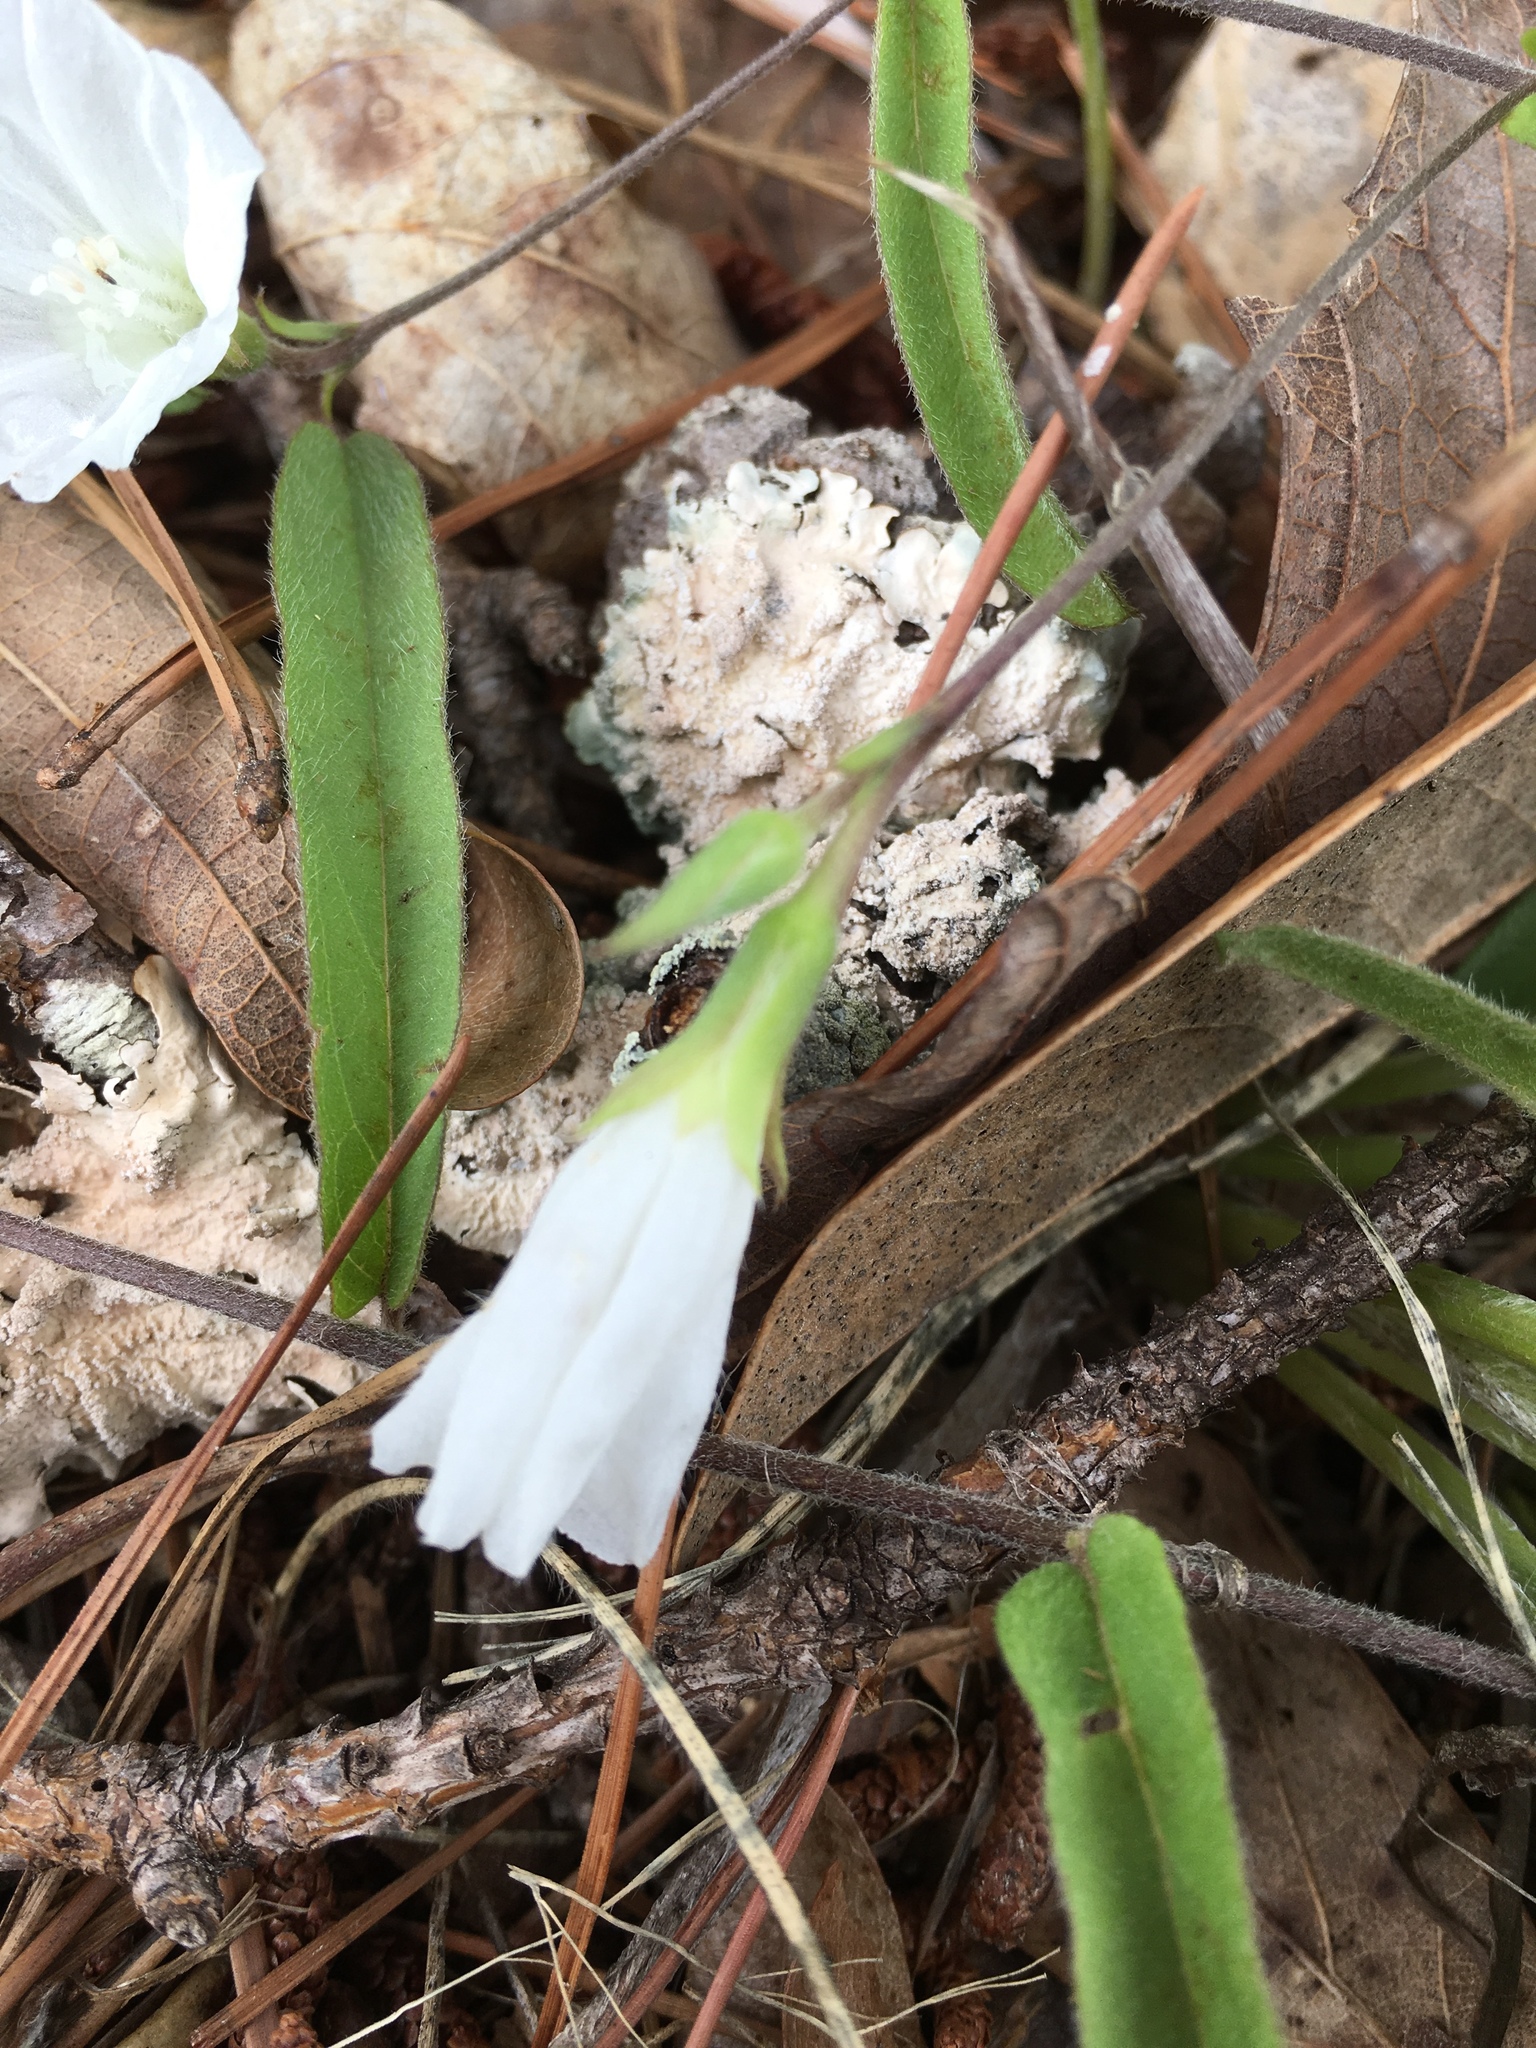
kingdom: Plantae
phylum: Tracheophyta
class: Magnoliopsida
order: Solanales
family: Convolvulaceae
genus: Stylisma
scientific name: Stylisma patens
